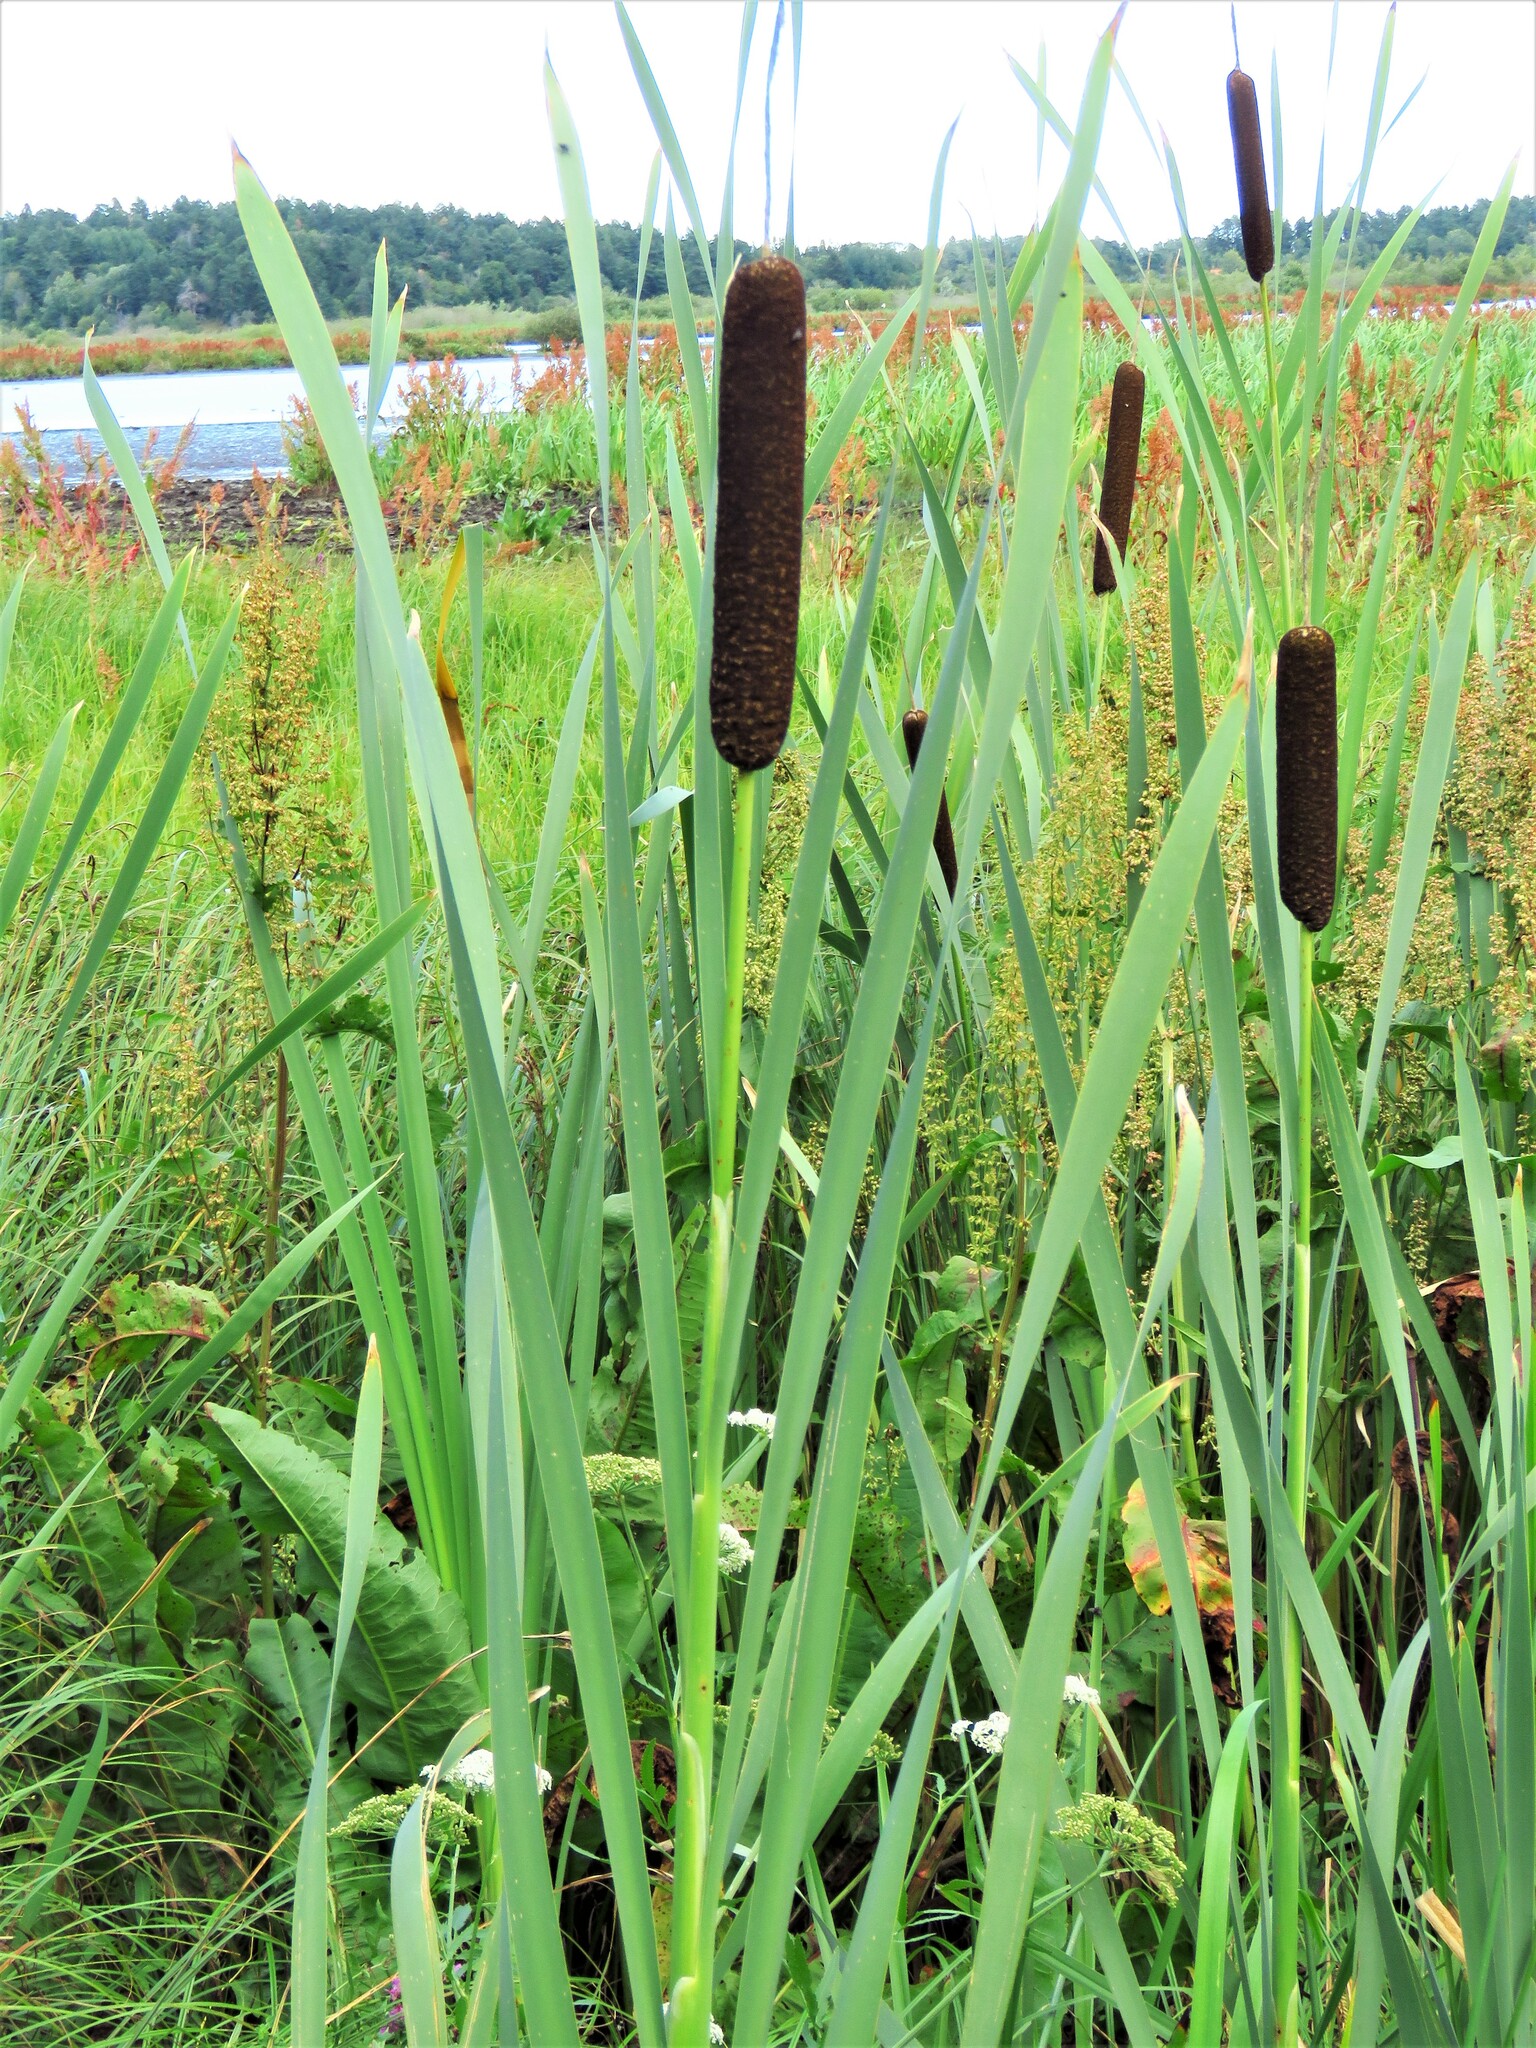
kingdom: Plantae
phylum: Tracheophyta
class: Liliopsida
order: Poales
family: Typhaceae
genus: Typha
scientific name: Typha latifolia
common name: Broadleaf cattail
